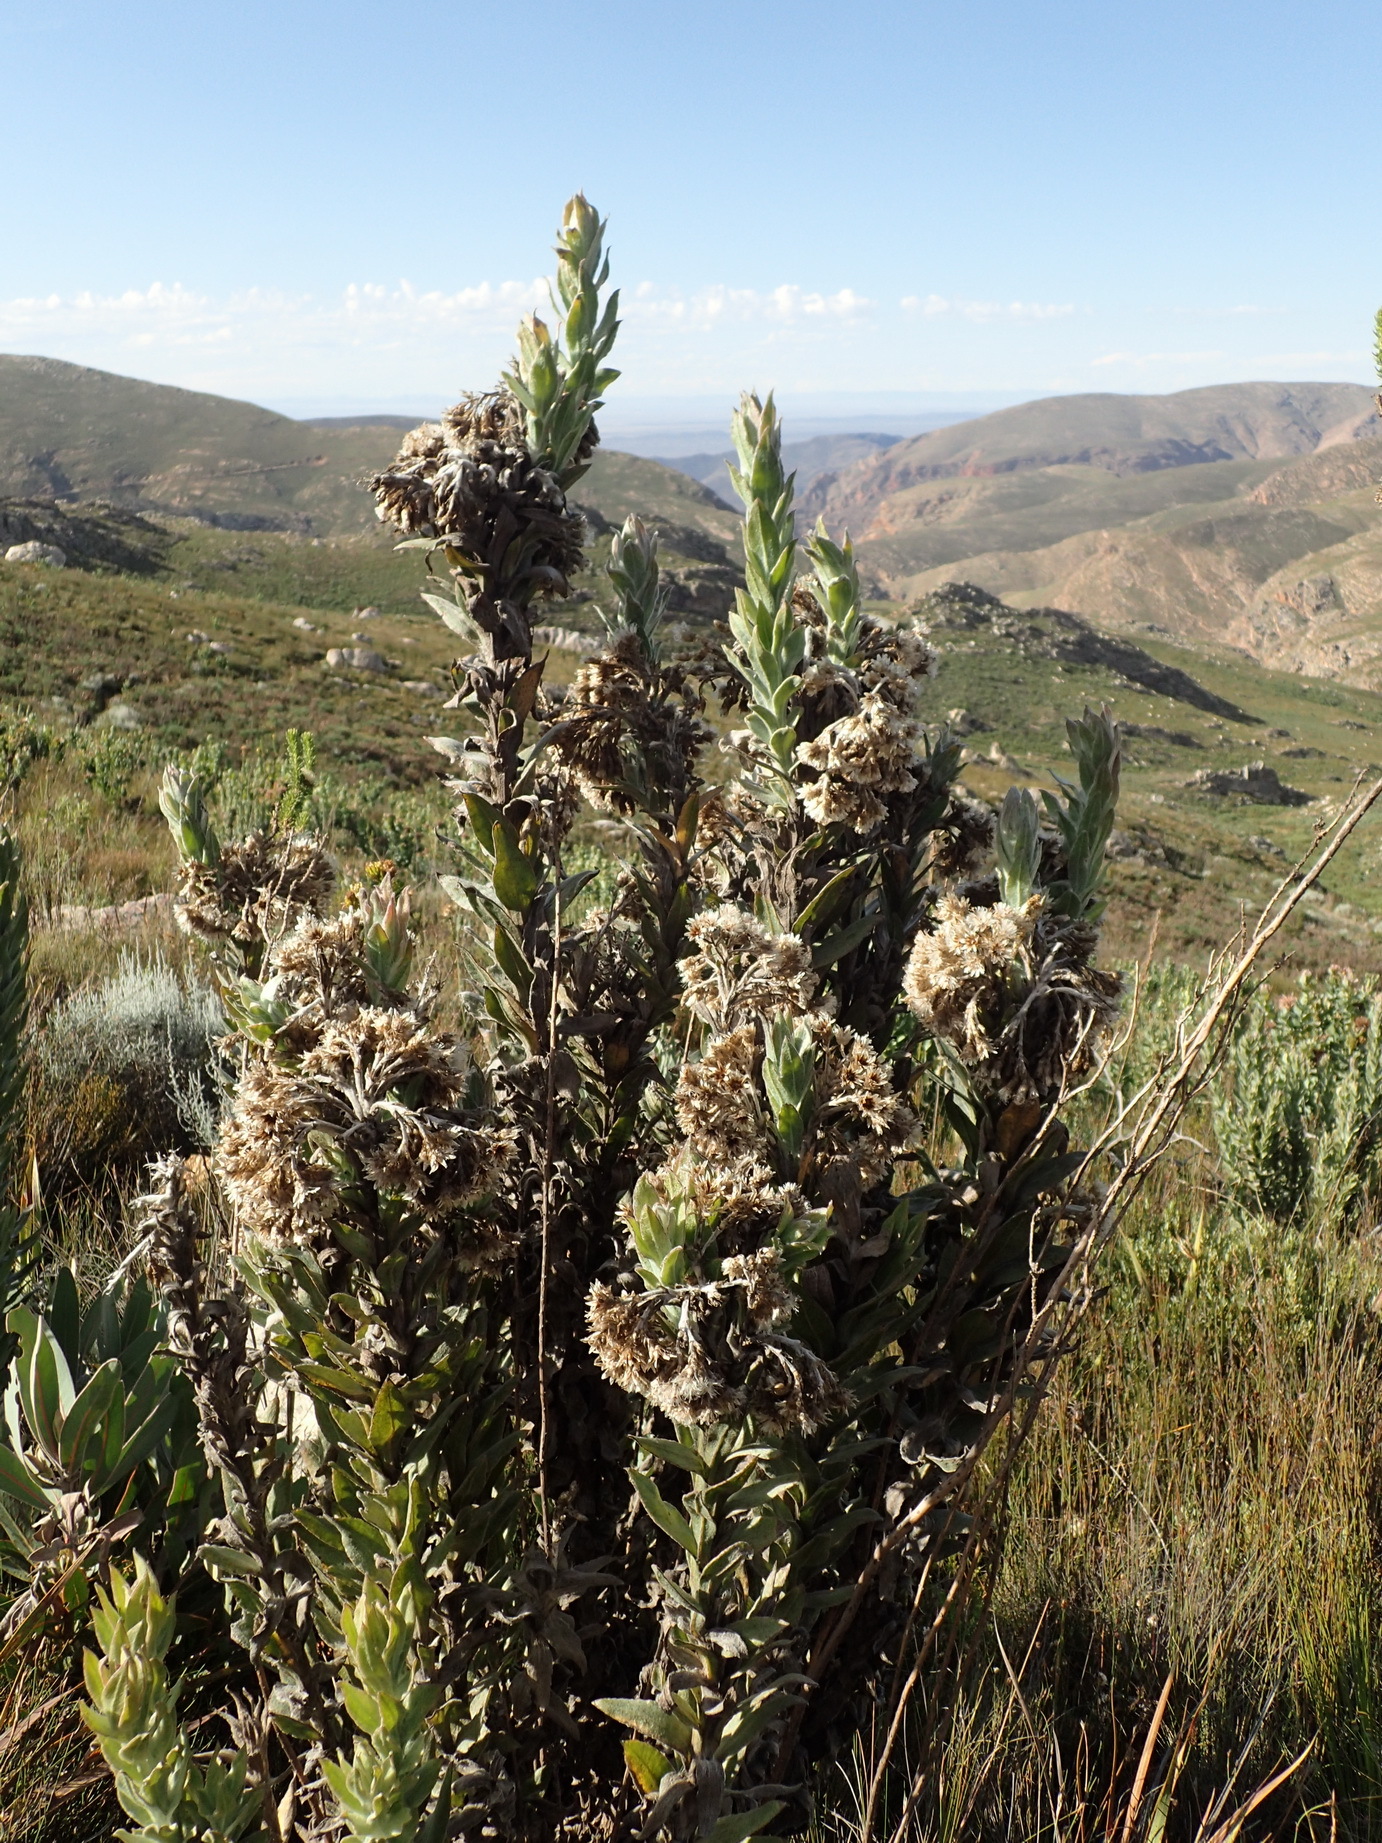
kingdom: Plantae
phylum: Tracheophyta
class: Magnoliopsida
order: Asterales
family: Asteraceae
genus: Syncarpha
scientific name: Syncarpha milleflora
